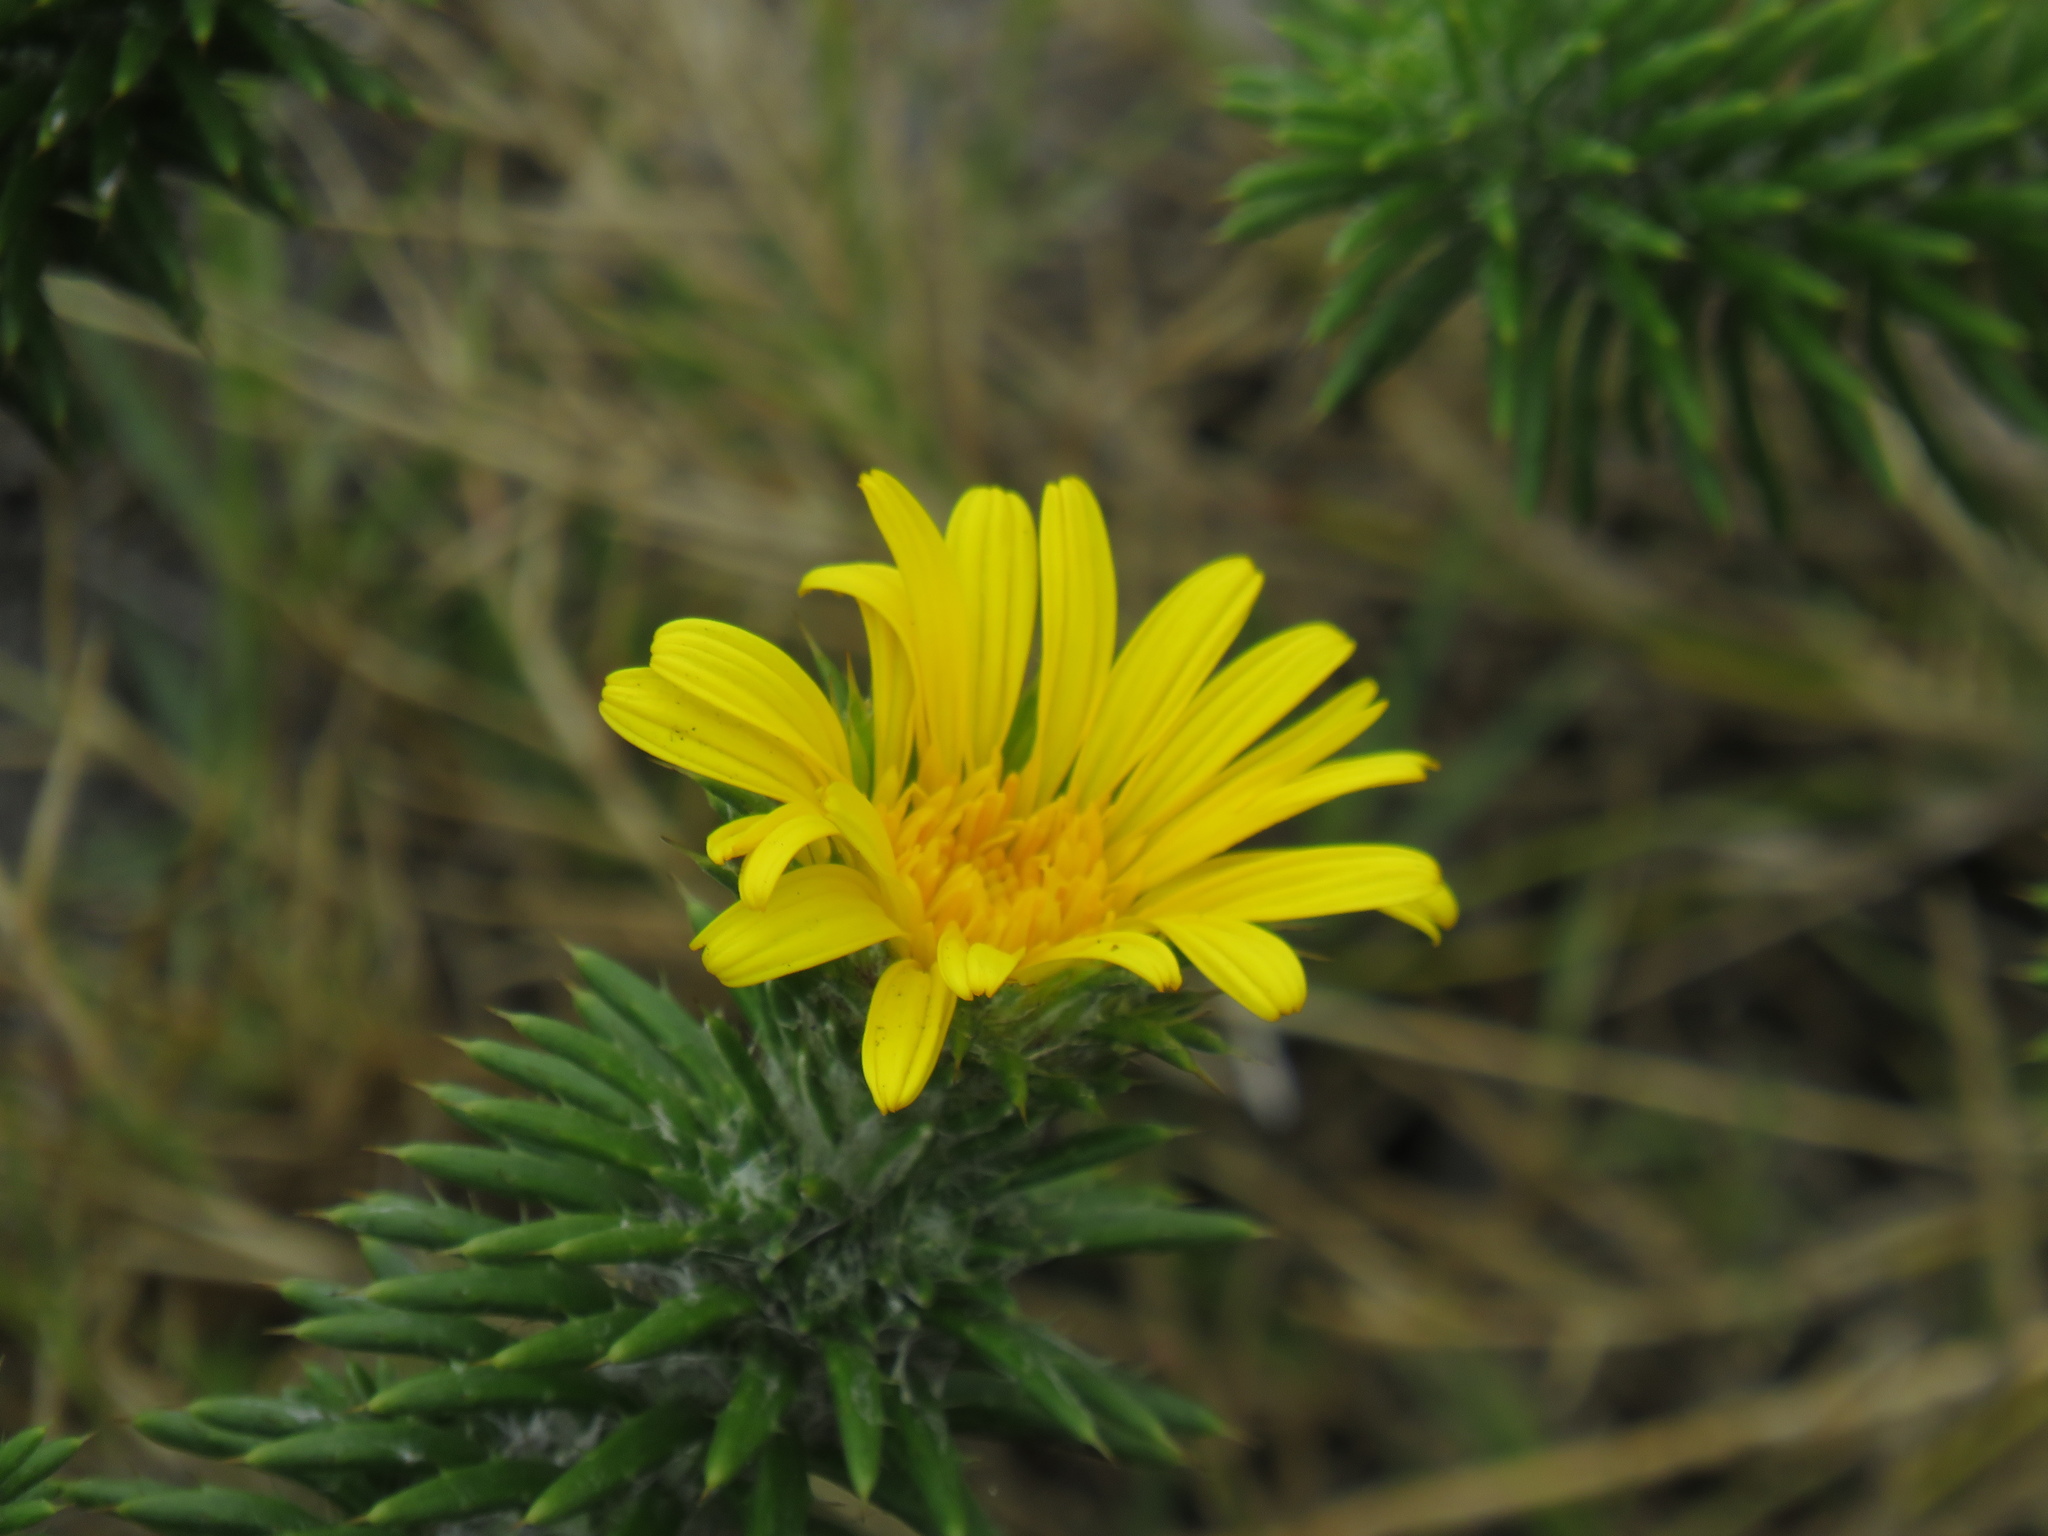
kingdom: Plantae
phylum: Tracheophyta
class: Magnoliopsida
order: Asterales
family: Asteraceae
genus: Cullumia
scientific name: Cullumia squarrosa
